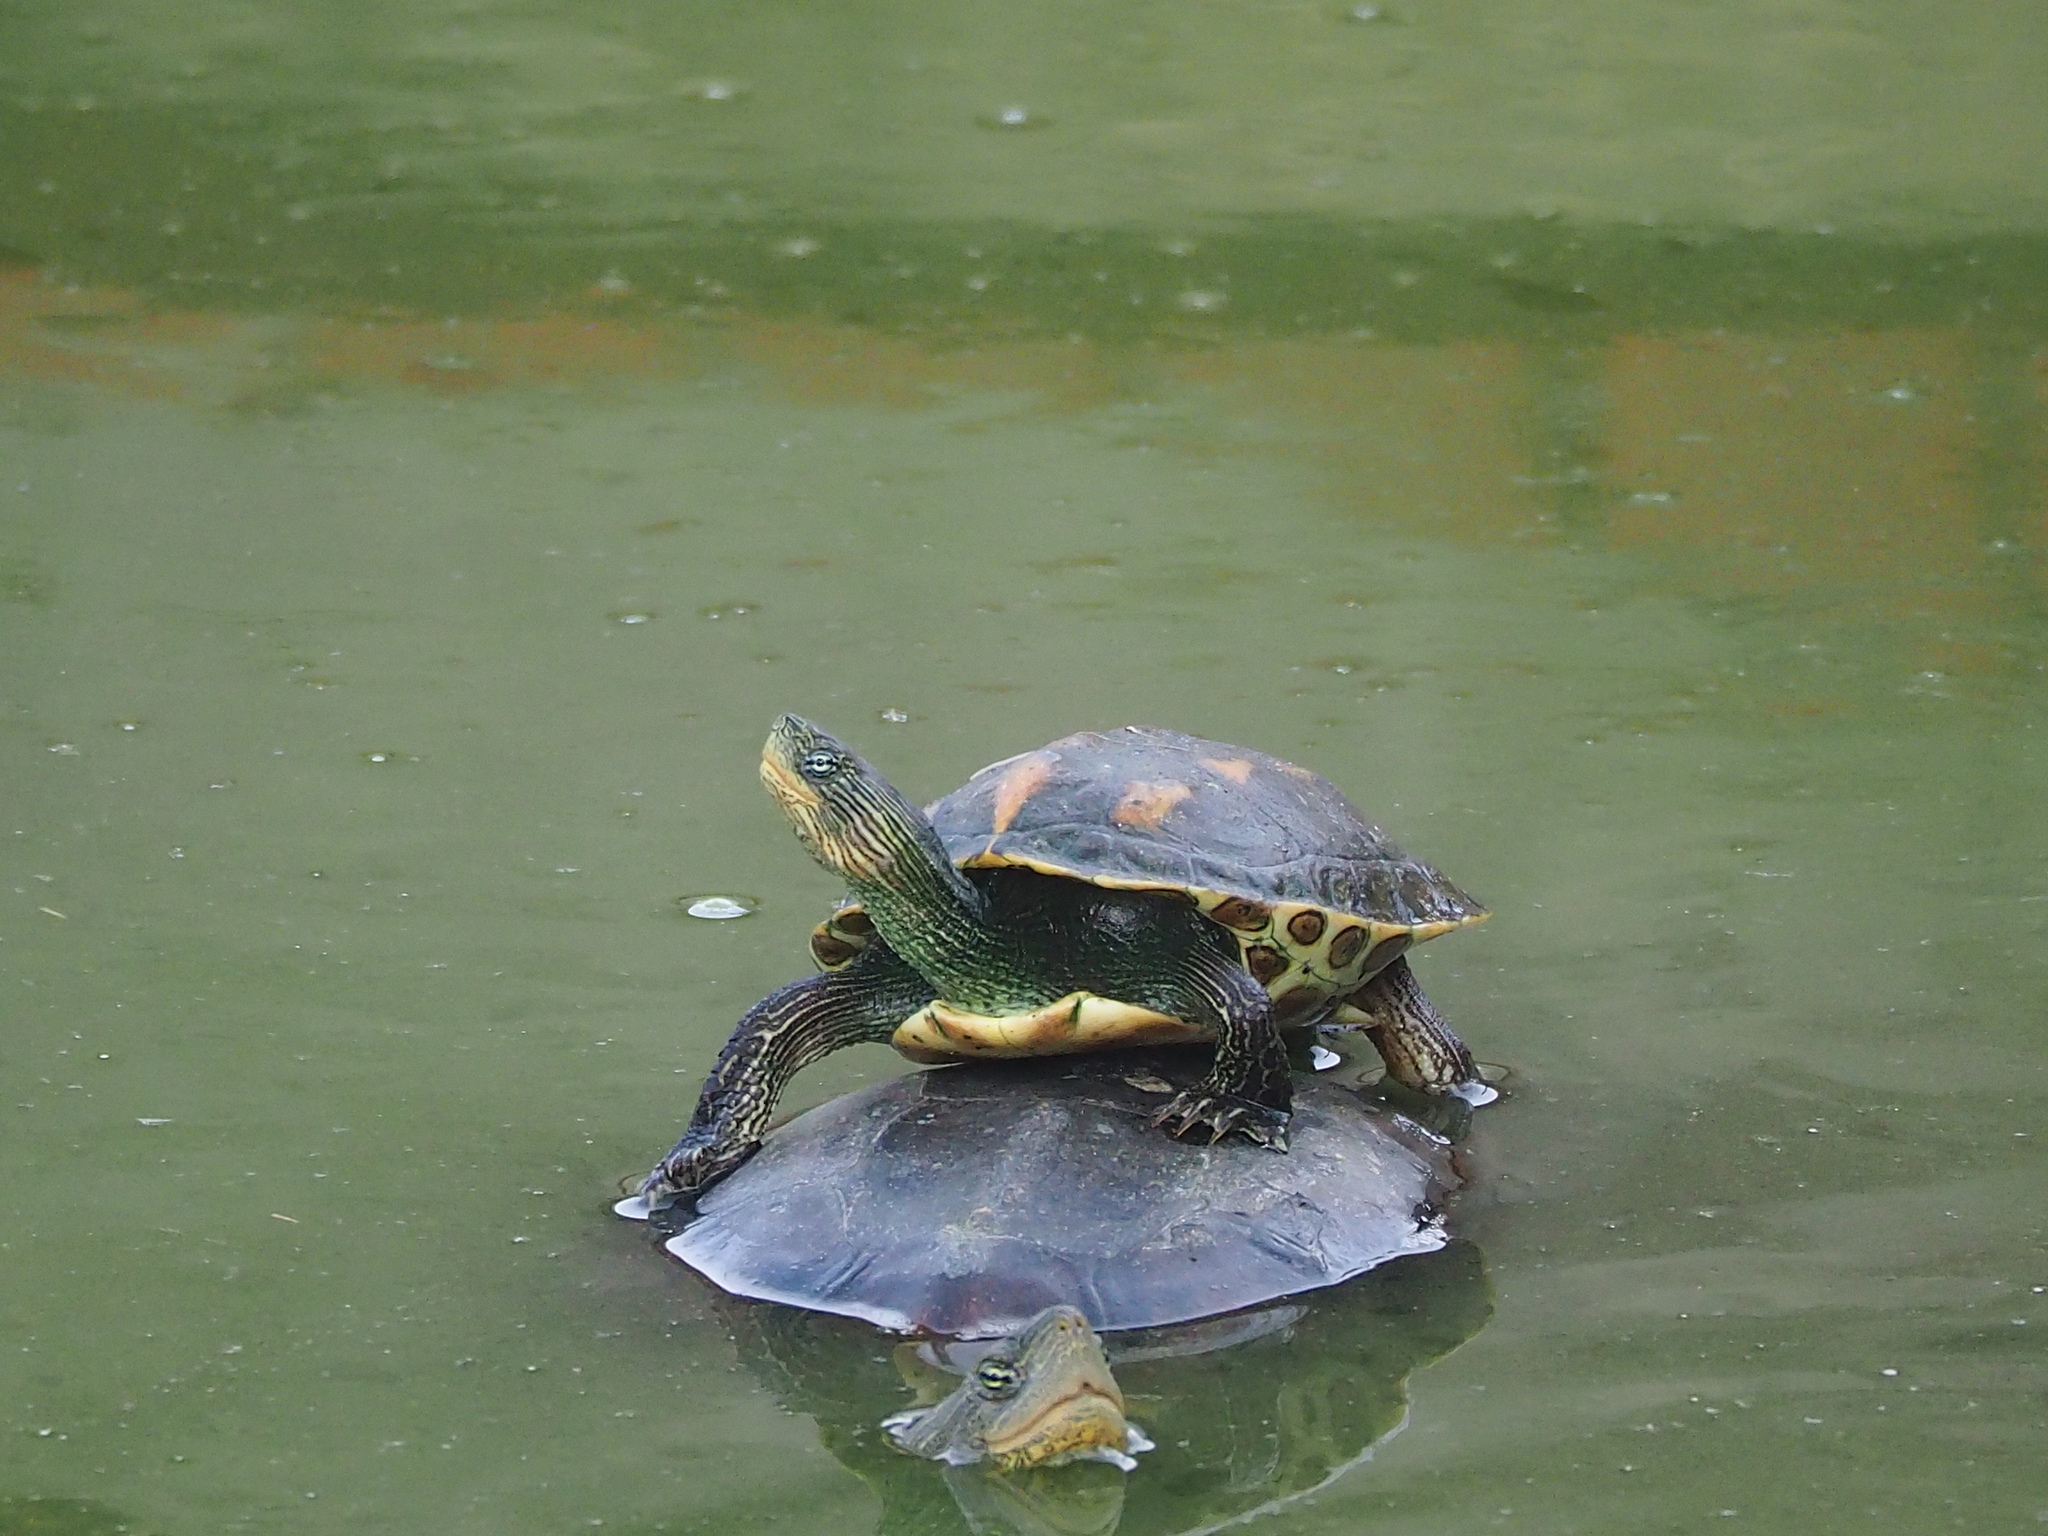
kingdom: Animalia
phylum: Chordata
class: Testudines
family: Geoemydidae
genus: Mauremys
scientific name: Mauremys sinensis
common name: Chinese stripe-necked turtle
